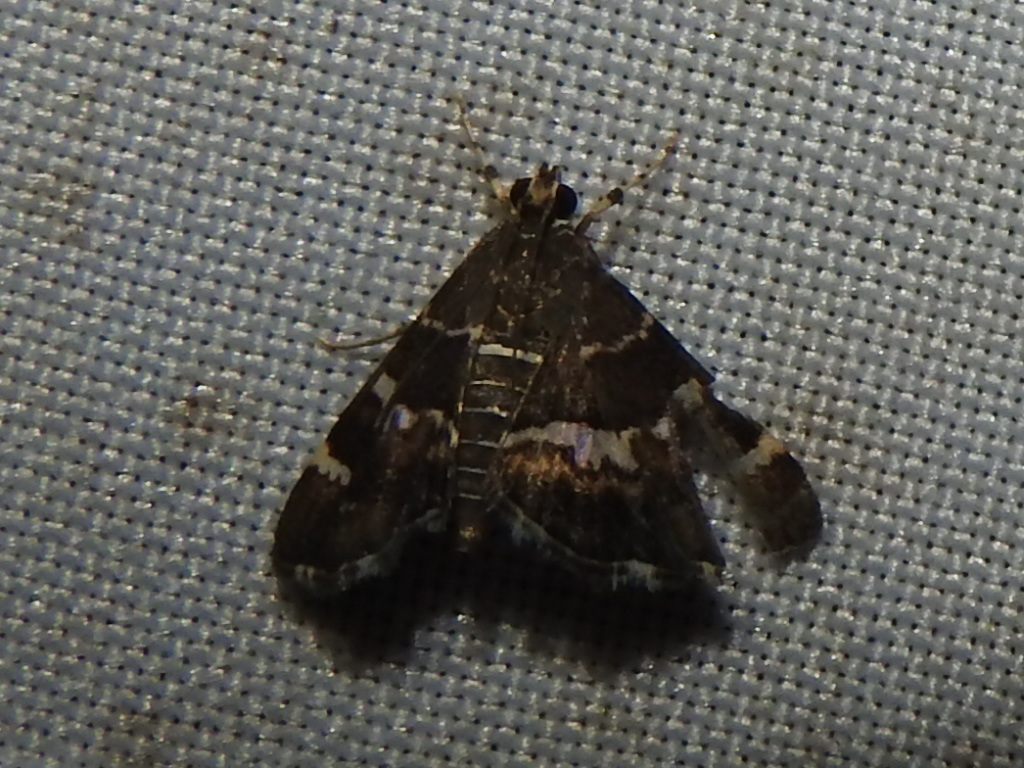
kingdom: Animalia
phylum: Arthropoda
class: Insecta
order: Lepidoptera
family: Crambidae
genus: Hymenia
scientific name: Hymenia perspectalis
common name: Spotted beet webworm
